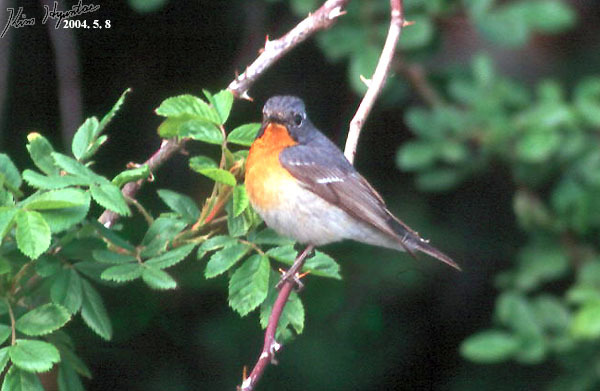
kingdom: Animalia
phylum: Chordata
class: Aves
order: Passeriformes
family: Muscicapidae
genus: Ficedula
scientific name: Ficedula mugimaki
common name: Mugimaki flycatcher
